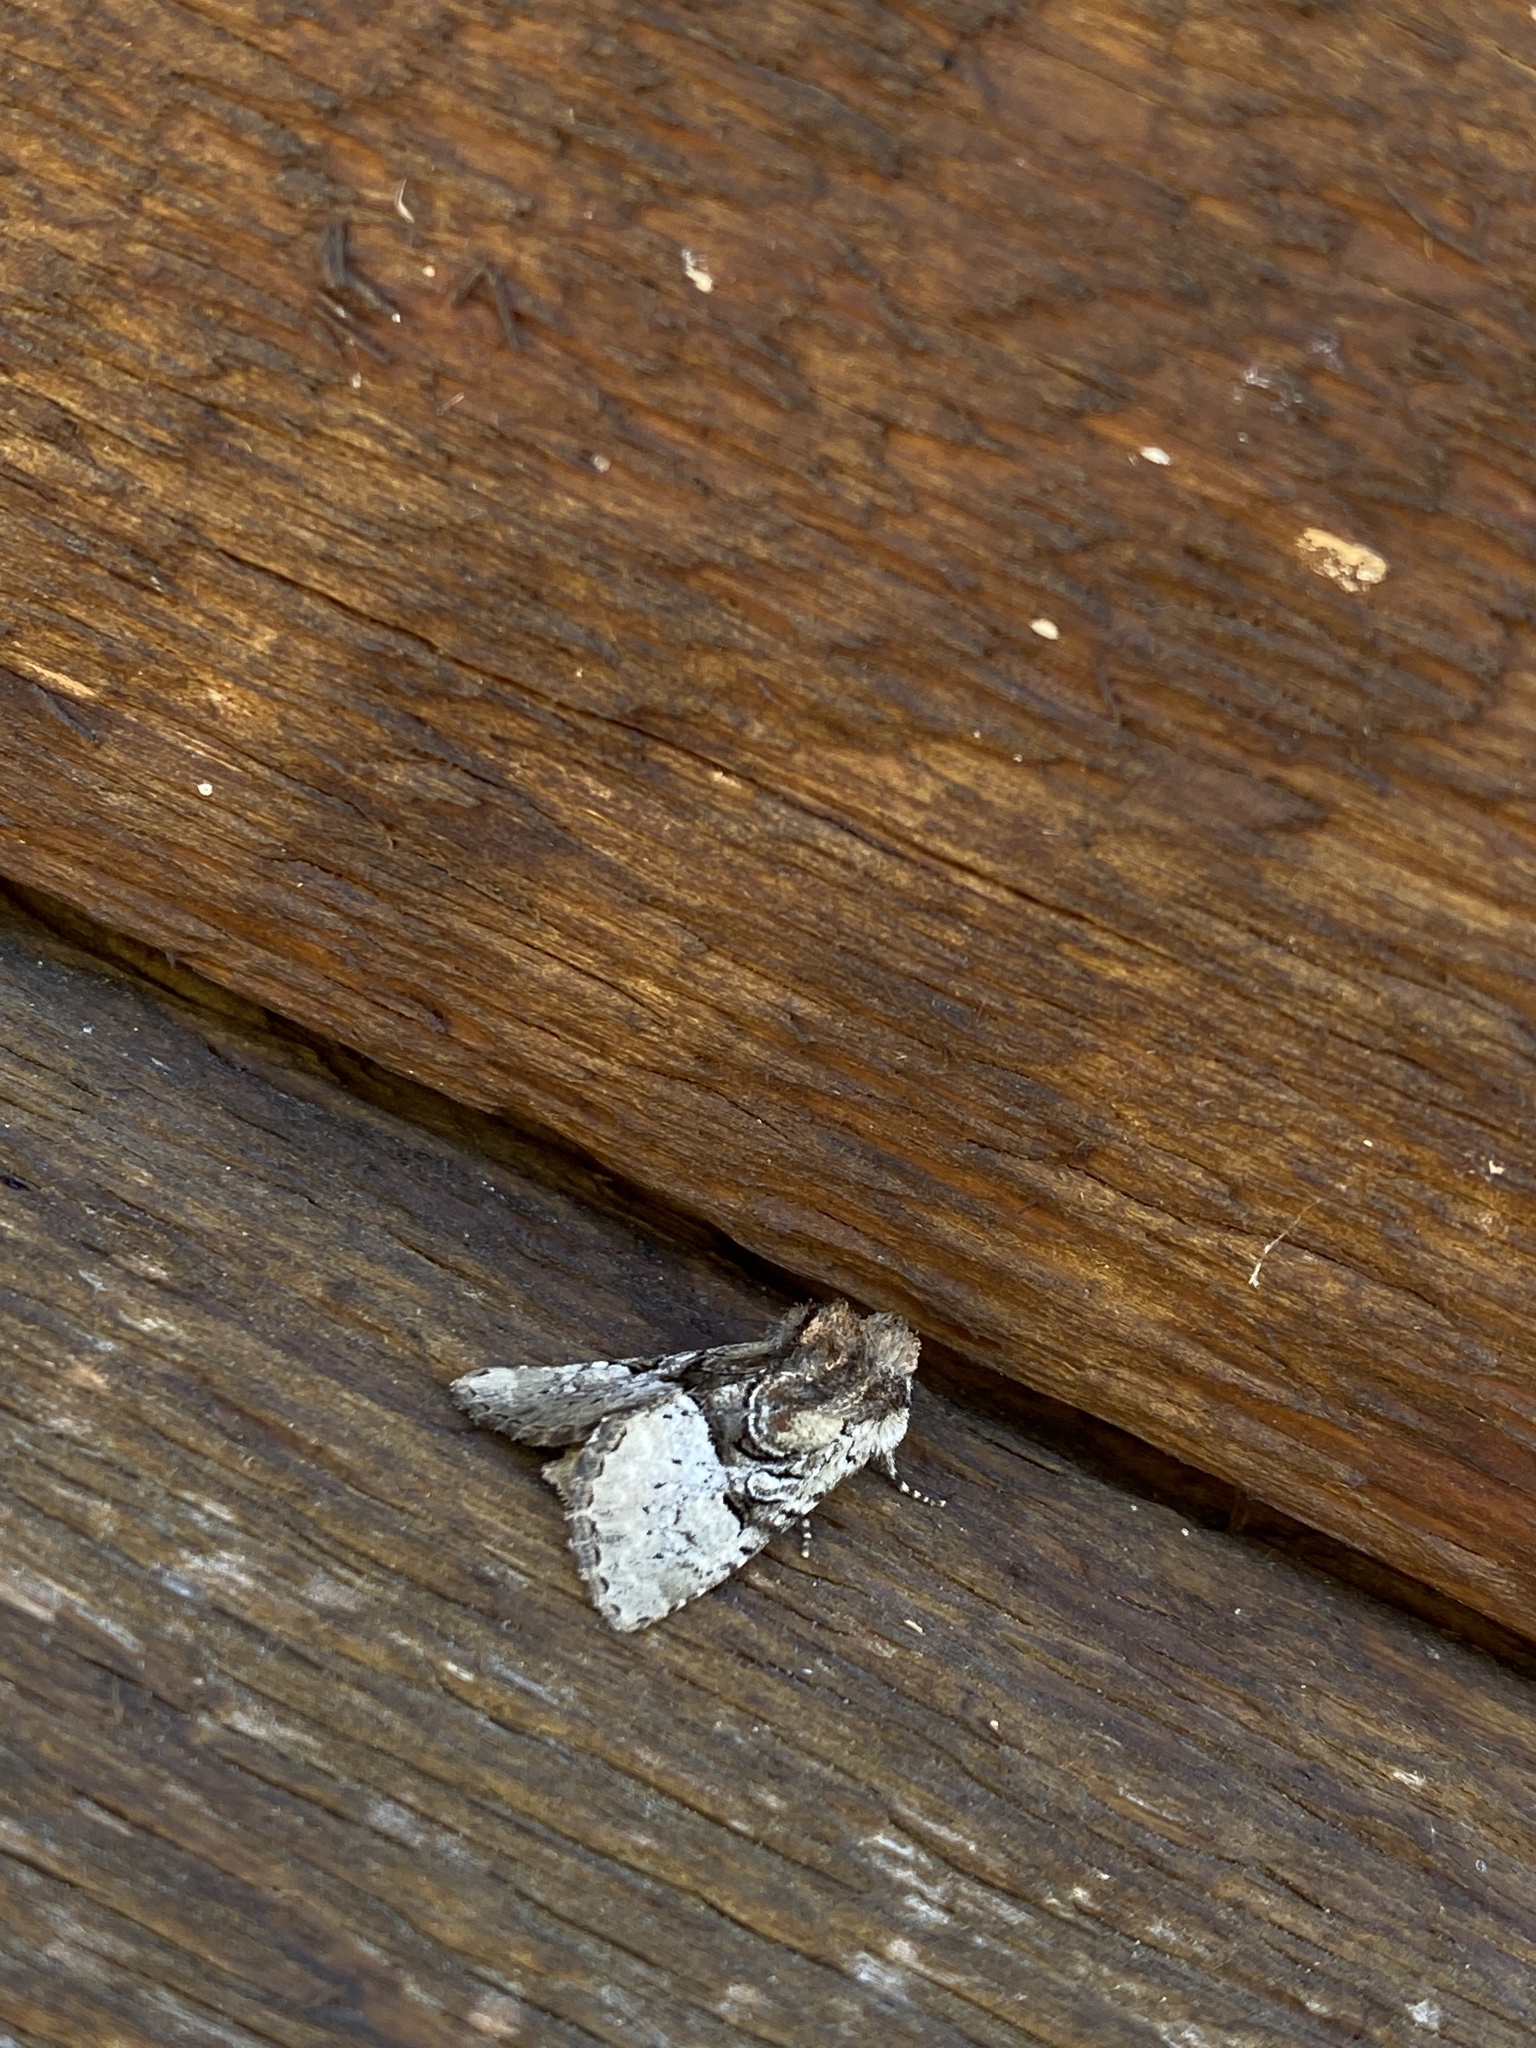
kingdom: Animalia
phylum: Arthropoda
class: Insecta
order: Lepidoptera
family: Noctuidae
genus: Meropleon
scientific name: Meropleon diversicolor
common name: Multicolored sedgeminer moth
